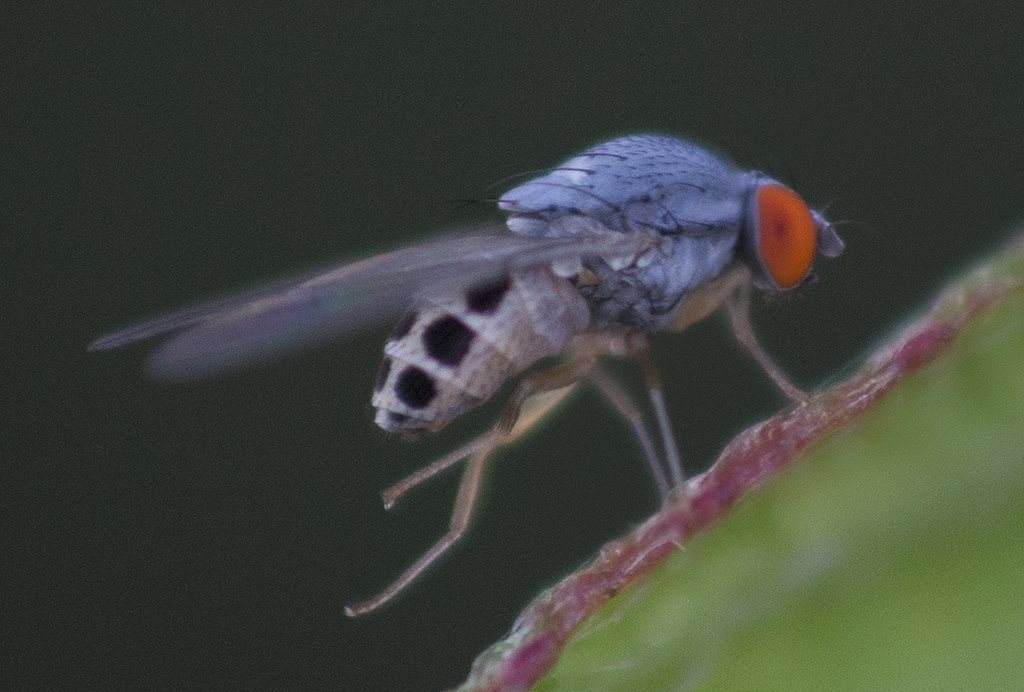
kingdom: Animalia
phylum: Arthropoda
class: Insecta
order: Diptera
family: Drosophilidae
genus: Luzonimyia
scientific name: Luzonimyia cineracea
